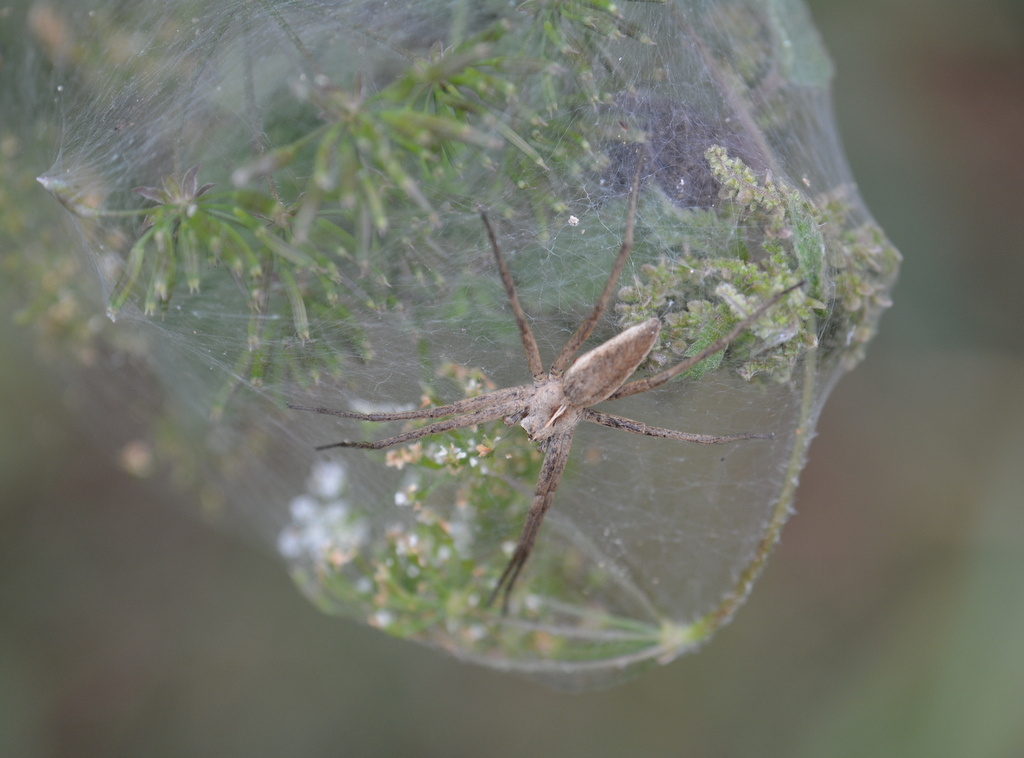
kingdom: Animalia
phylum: Arthropoda
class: Arachnida
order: Araneae
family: Pisauridae
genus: Pisaura
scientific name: Pisaura mirabilis
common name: Tent spider
